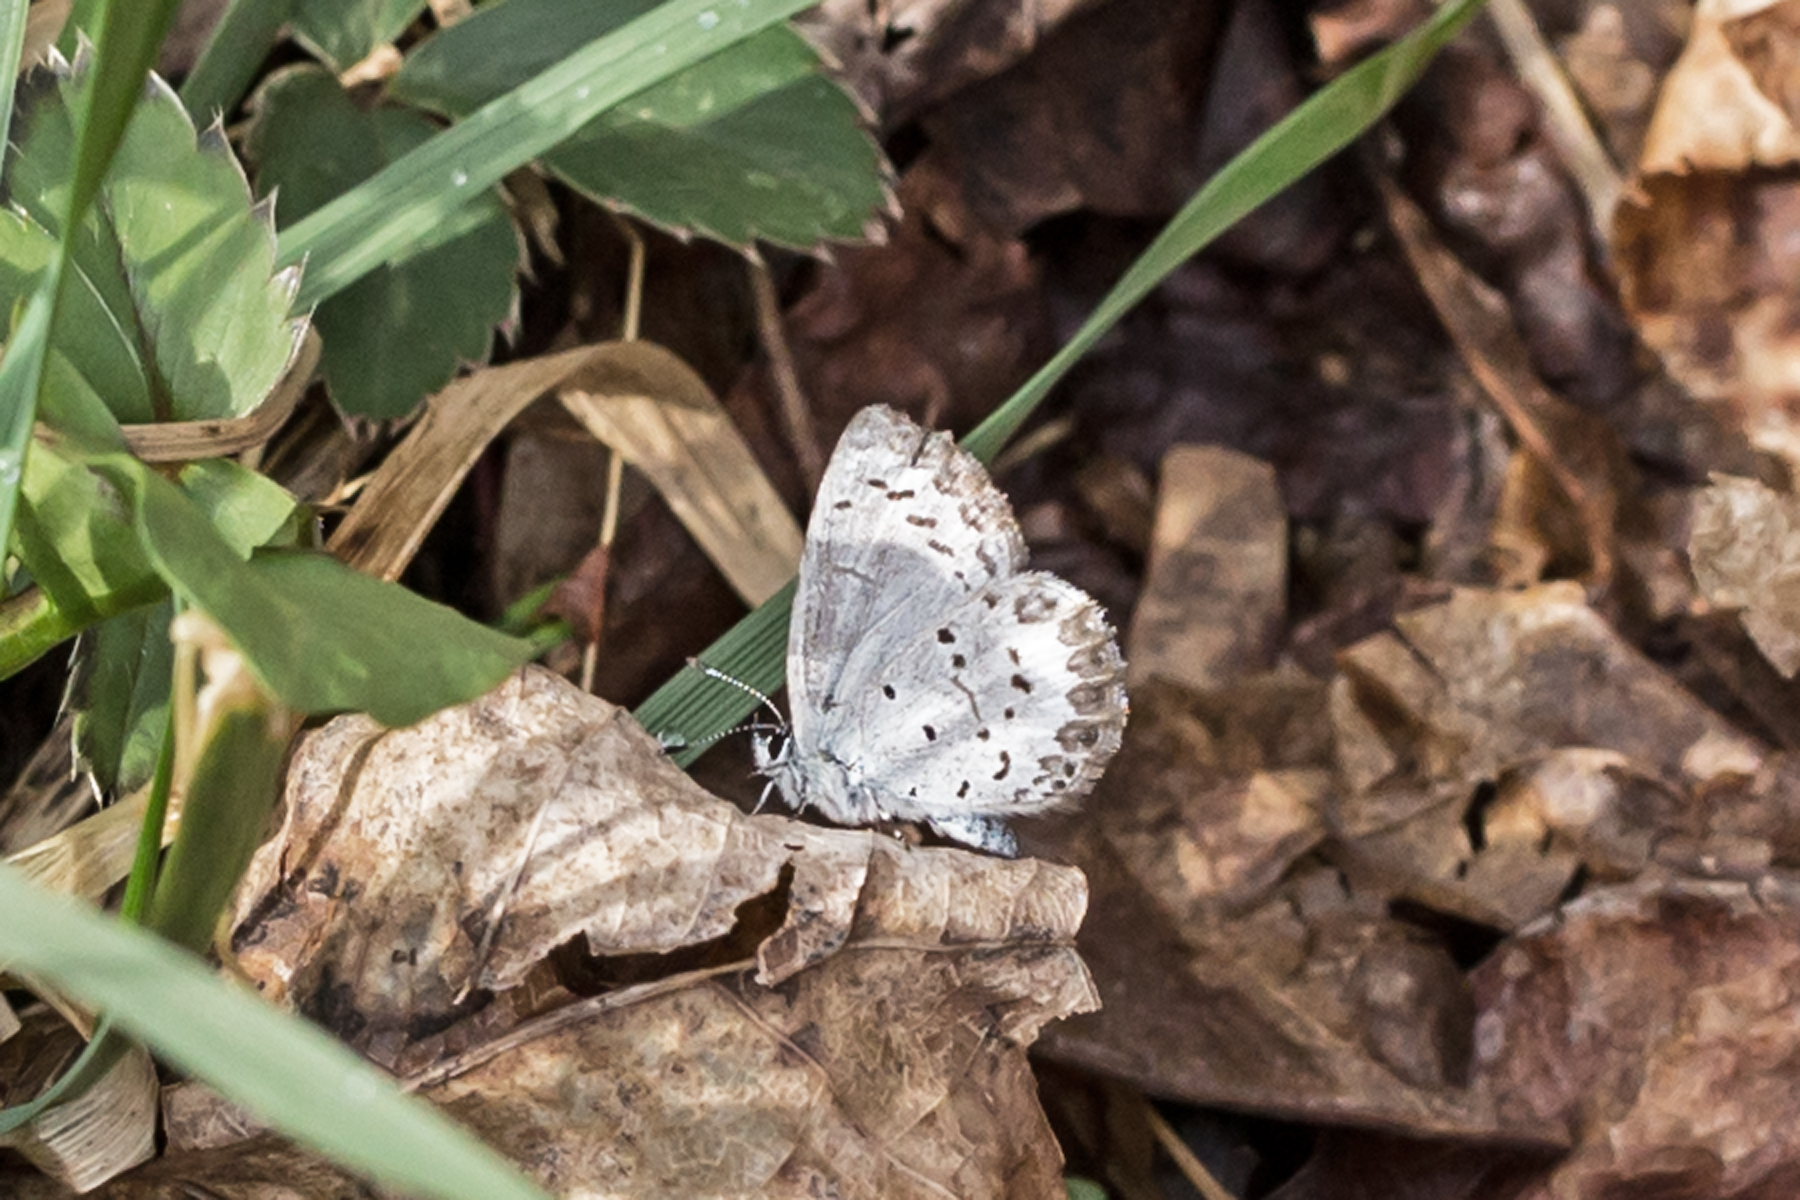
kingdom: Animalia
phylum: Arthropoda
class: Insecta
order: Lepidoptera
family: Lycaenidae
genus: Celastrina
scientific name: Celastrina ladon
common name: Spring azure
